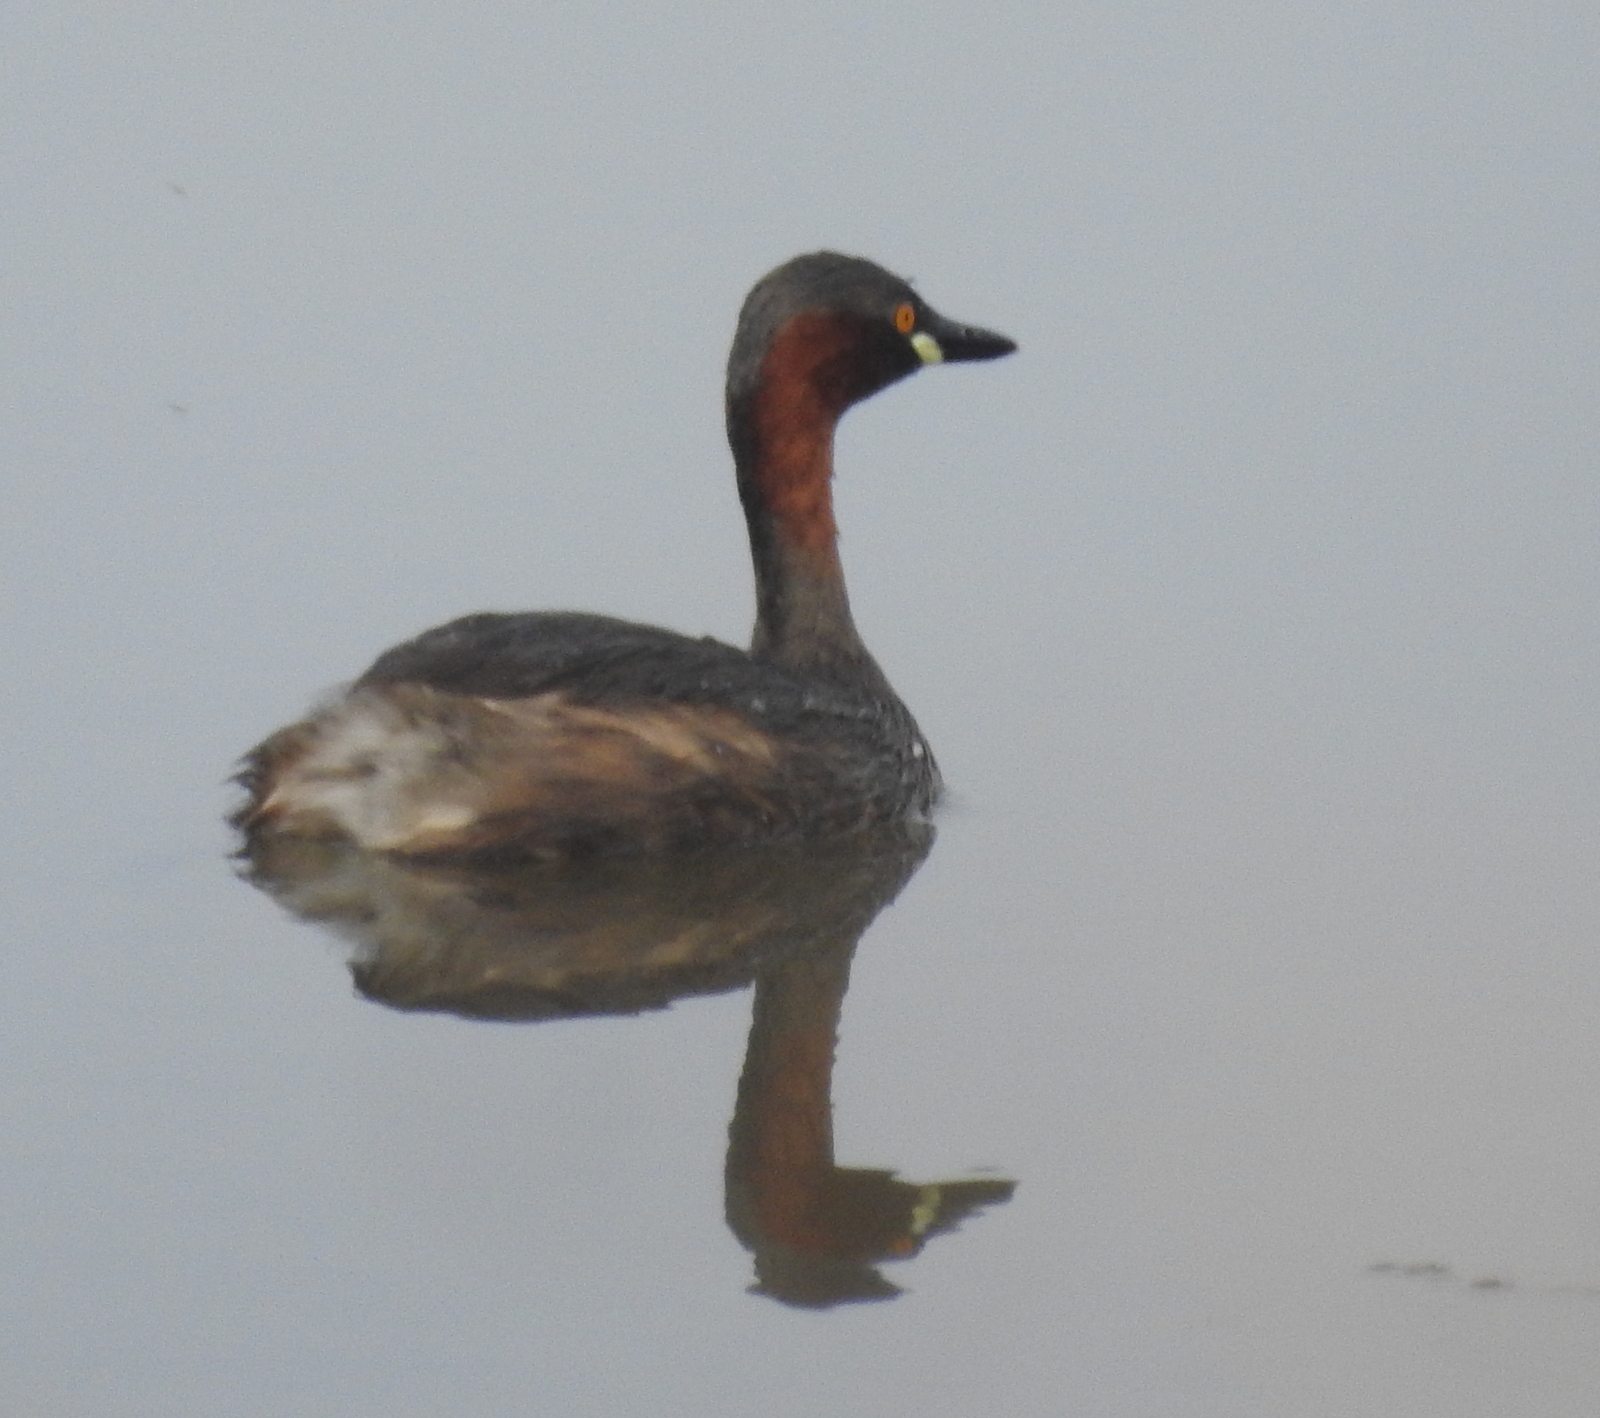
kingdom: Animalia
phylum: Chordata
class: Aves
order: Podicipediformes
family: Podicipedidae
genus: Tachybaptus
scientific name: Tachybaptus ruficollis
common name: Little grebe
